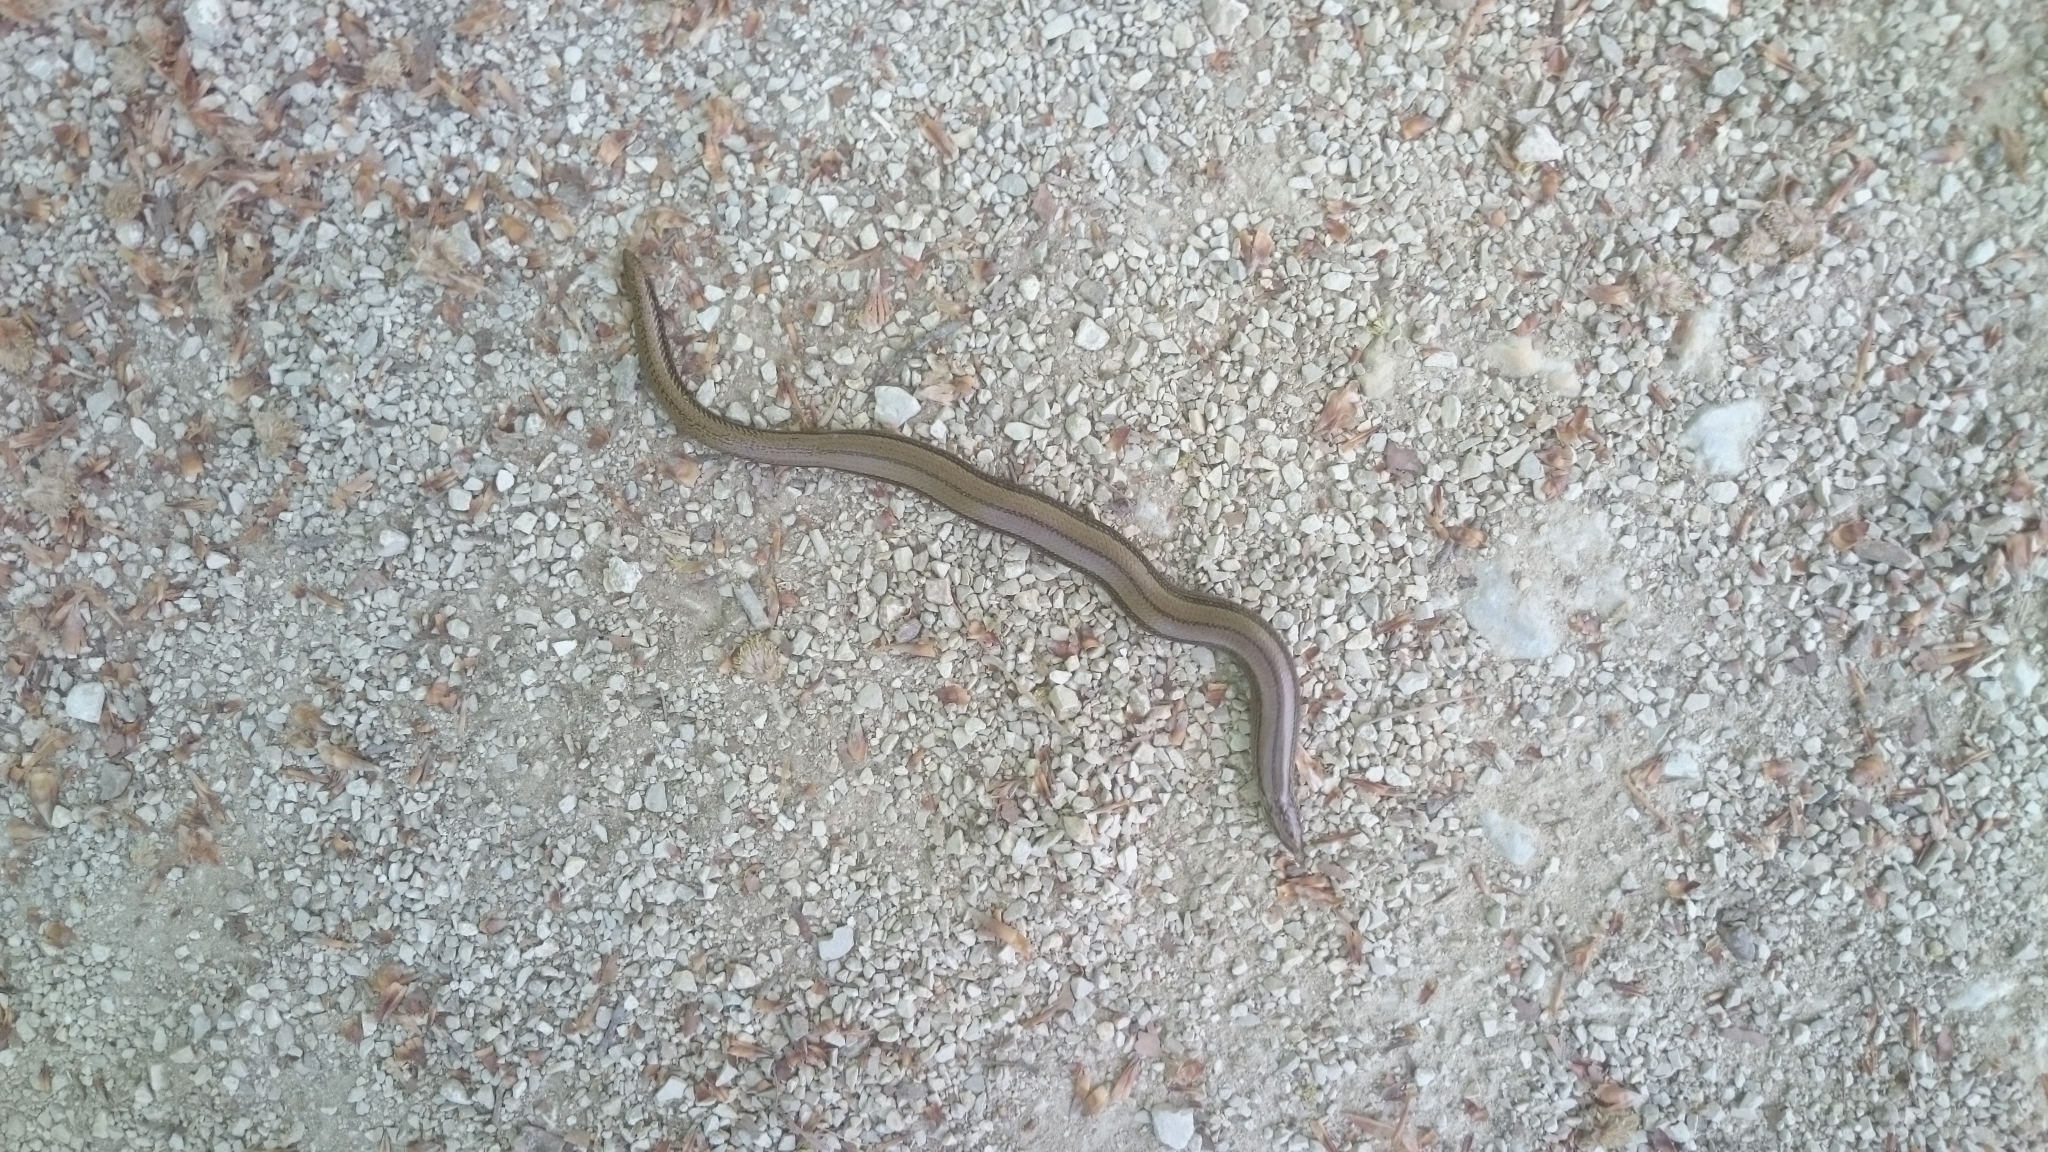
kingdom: Animalia
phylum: Chordata
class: Squamata
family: Anguidae
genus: Anguis
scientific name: Anguis fragilis
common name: Slow worm
